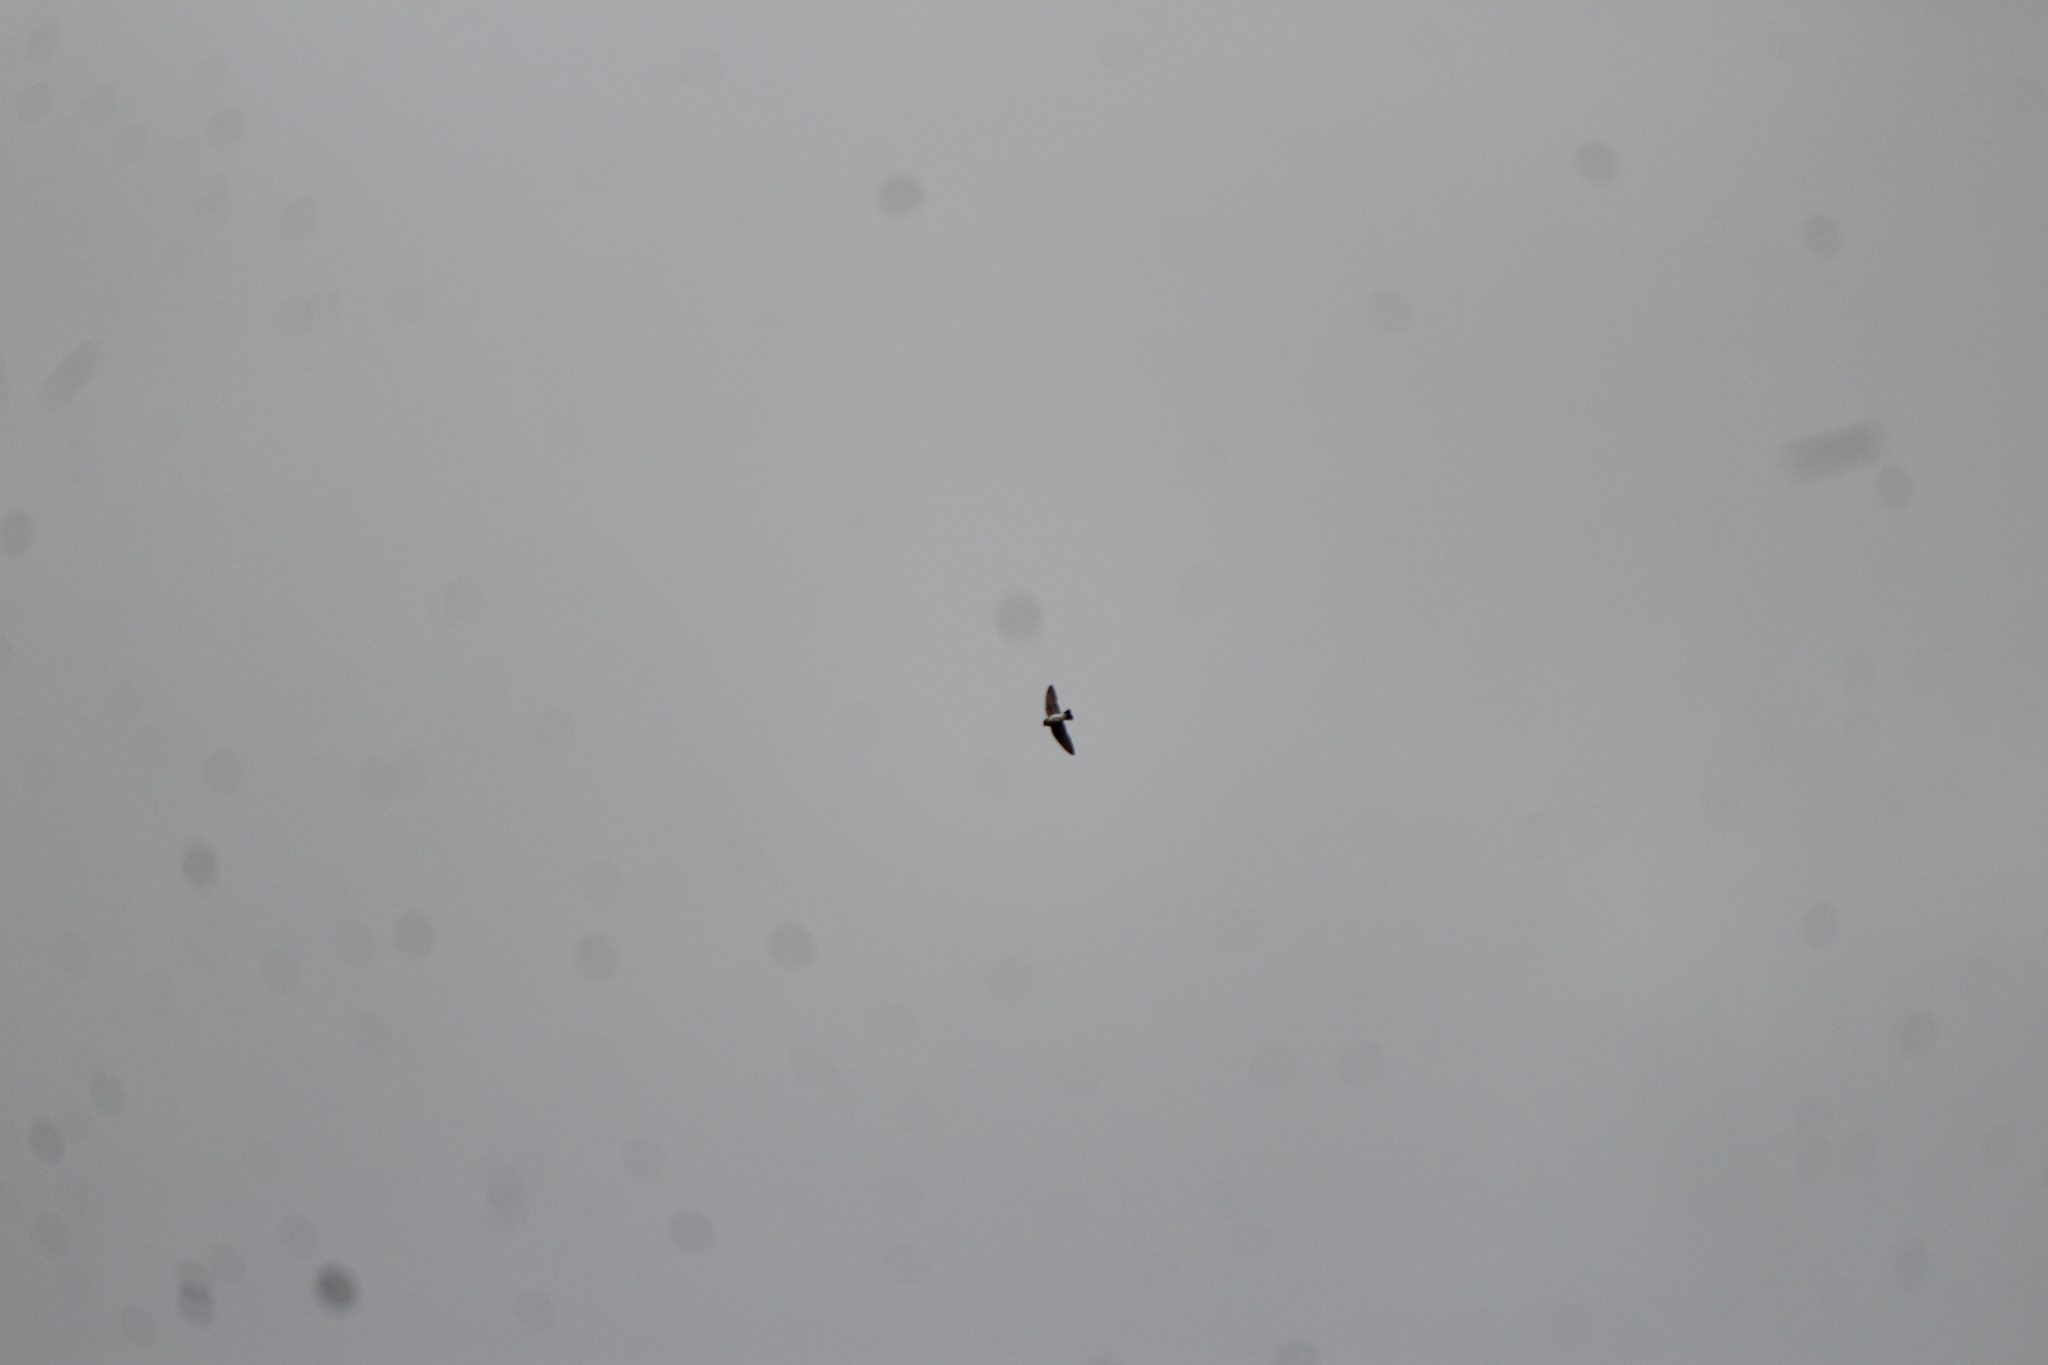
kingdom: Animalia
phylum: Chordata
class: Aves
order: Passeriformes
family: Hirundinidae
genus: Stelgidopteryx
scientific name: Stelgidopteryx serripennis
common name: Northern rough-winged swallow
